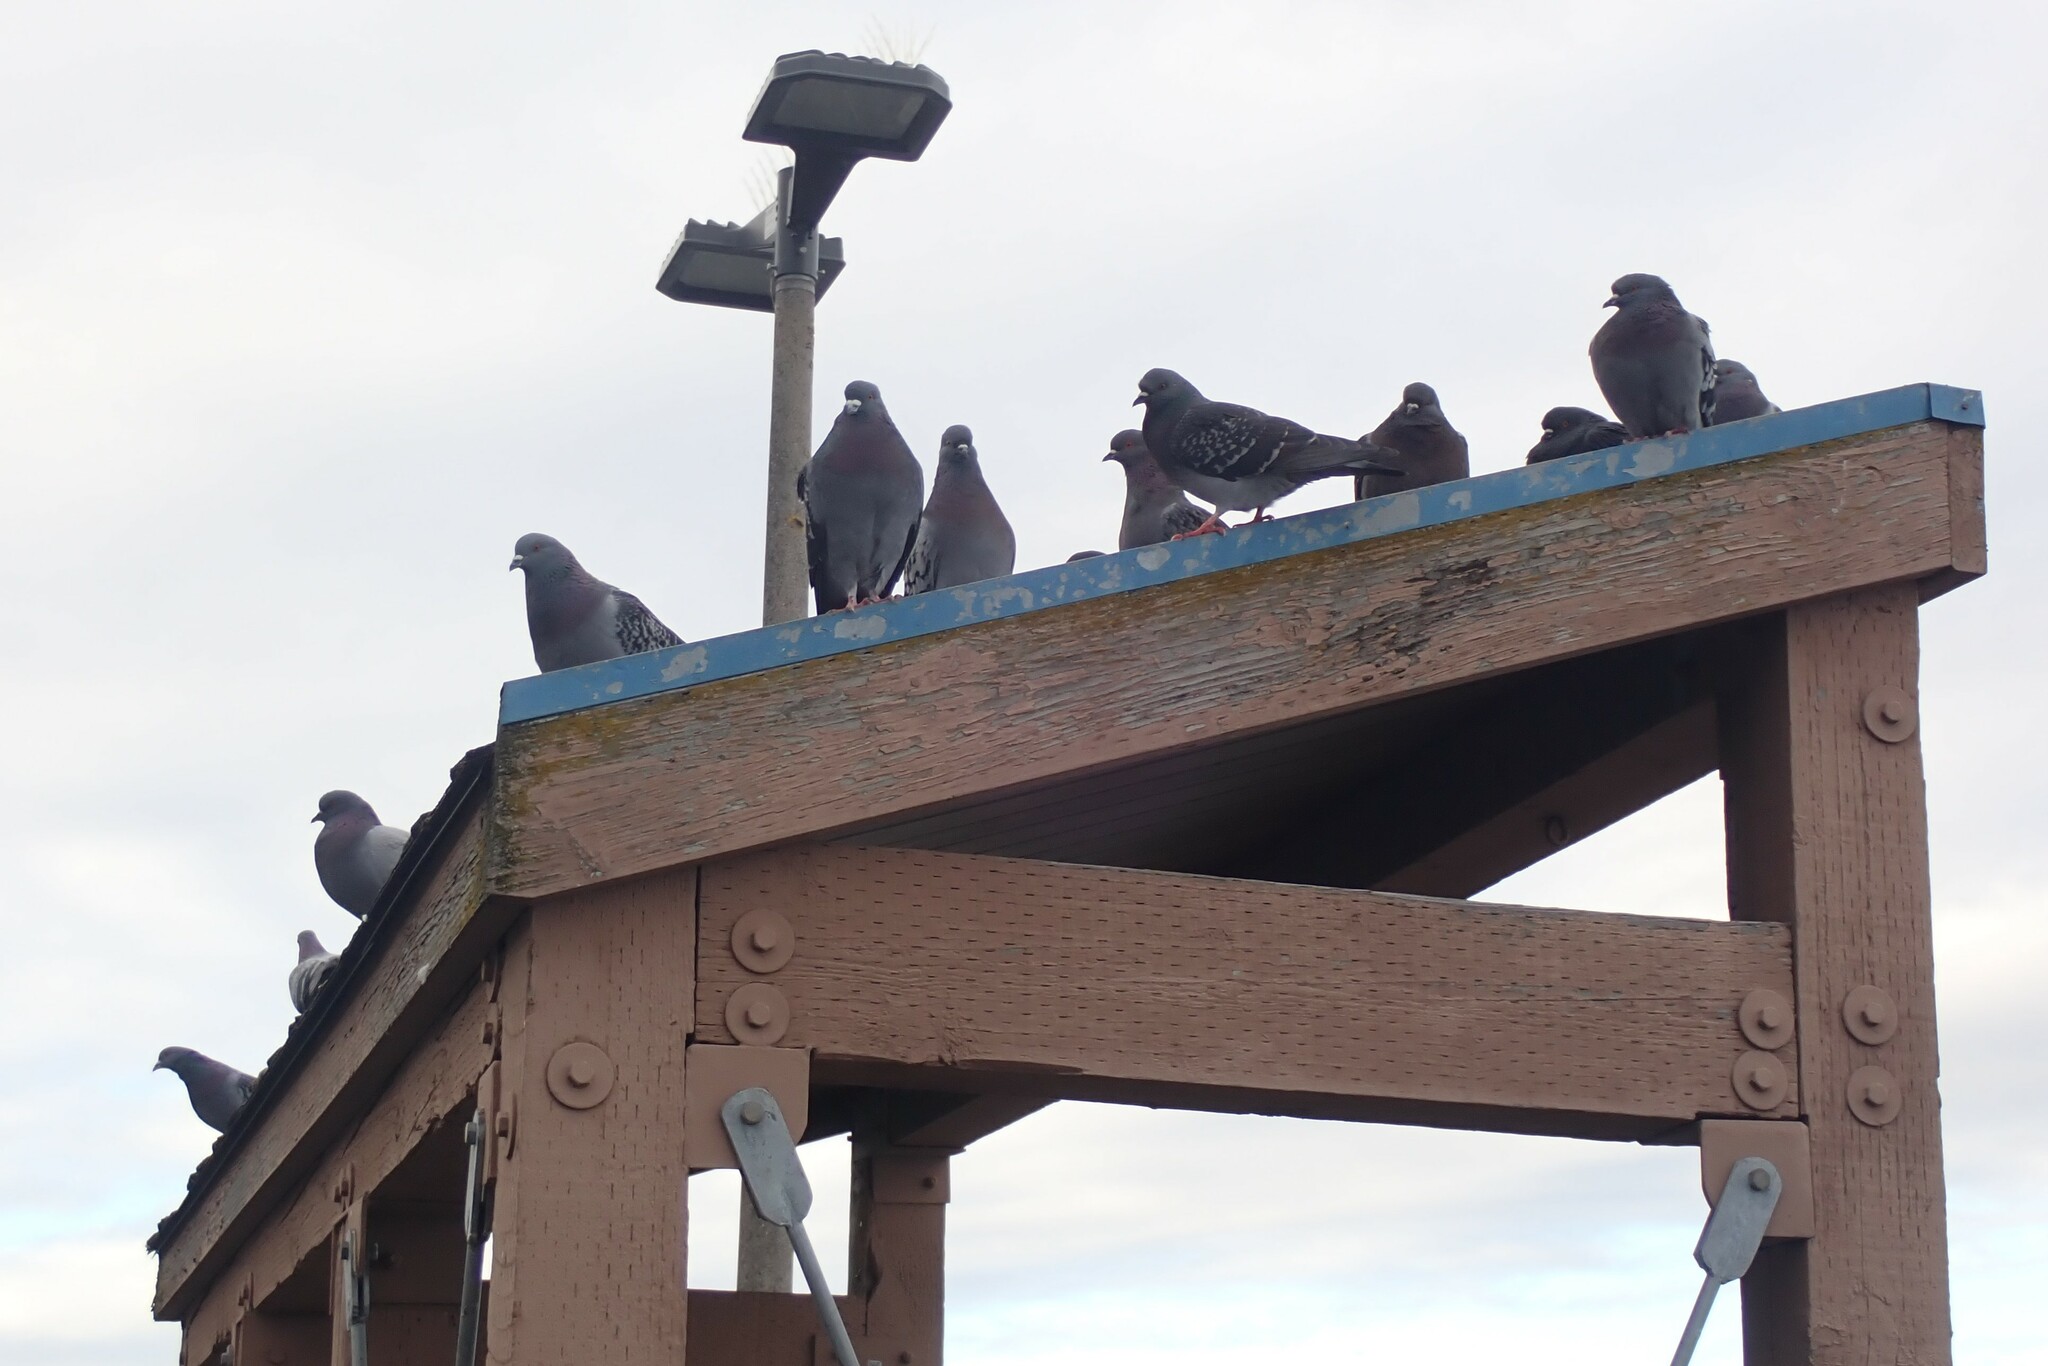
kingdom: Animalia
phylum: Chordata
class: Aves
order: Columbiformes
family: Columbidae
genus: Columba
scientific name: Columba livia
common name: Rock pigeon
